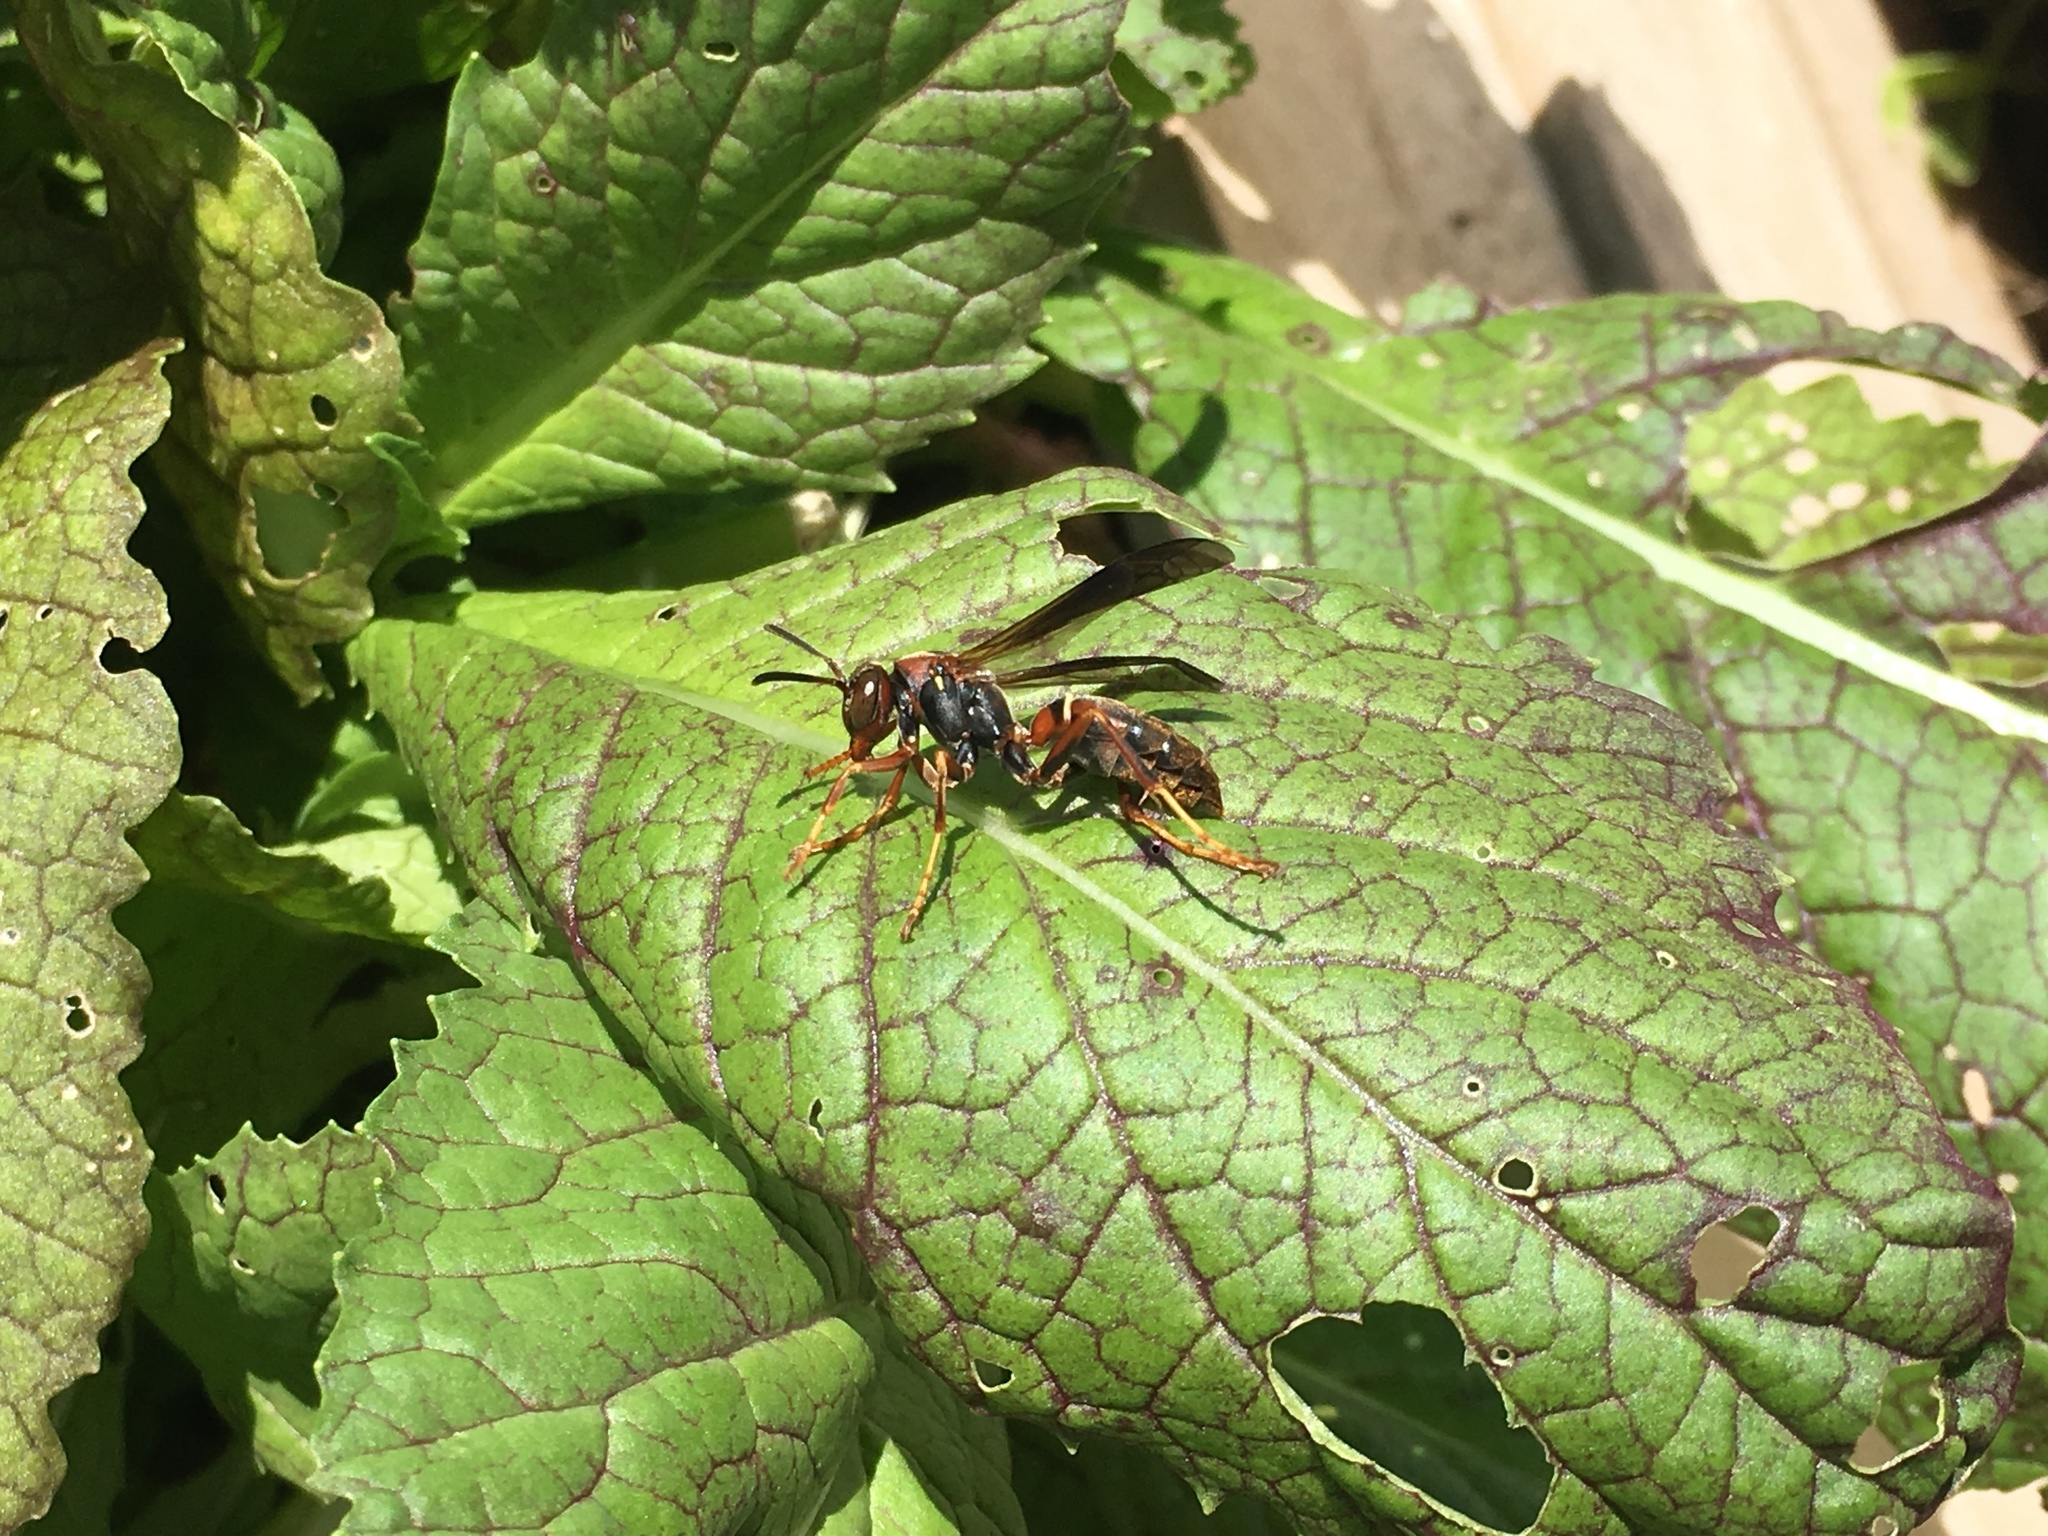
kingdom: Animalia
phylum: Arthropoda
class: Insecta
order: Hymenoptera
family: Eumenidae
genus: Polistes
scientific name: Polistes fuscatus
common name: Dark paper wasp
